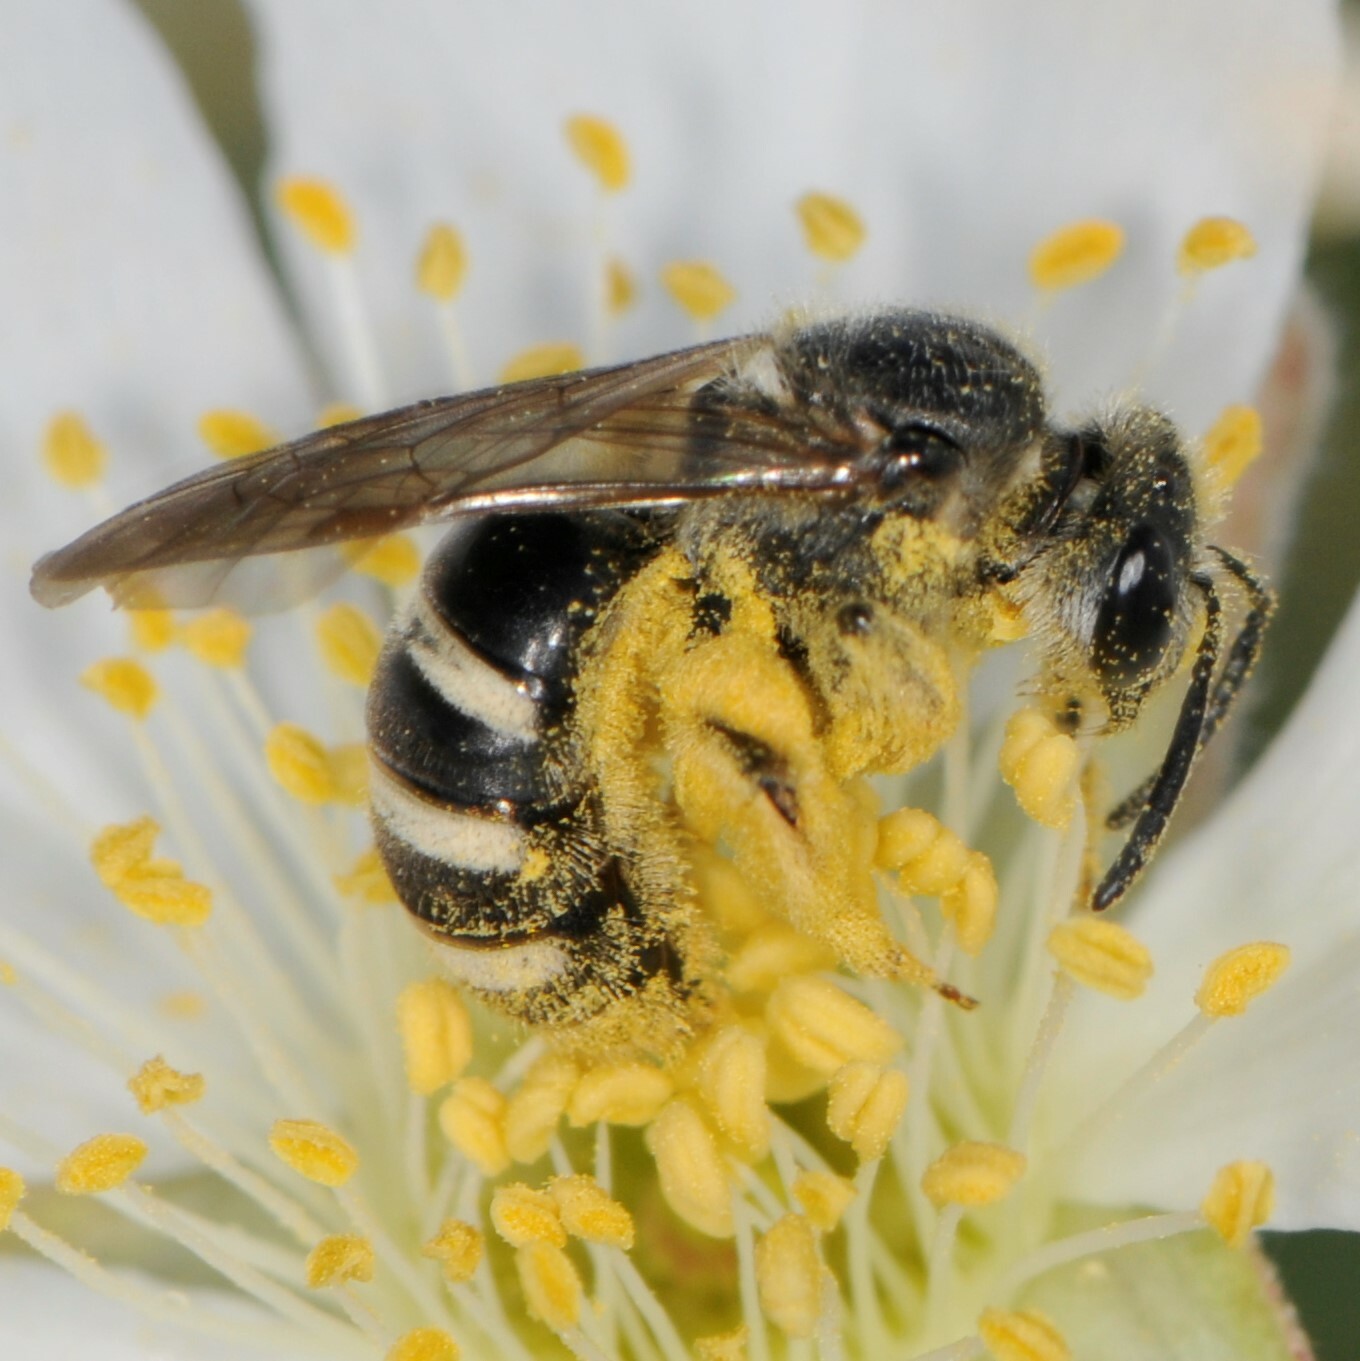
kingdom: Animalia
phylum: Arthropoda
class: Insecta
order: Hymenoptera
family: Halictidae
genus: Lasioglossum
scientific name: Lasioglossum
